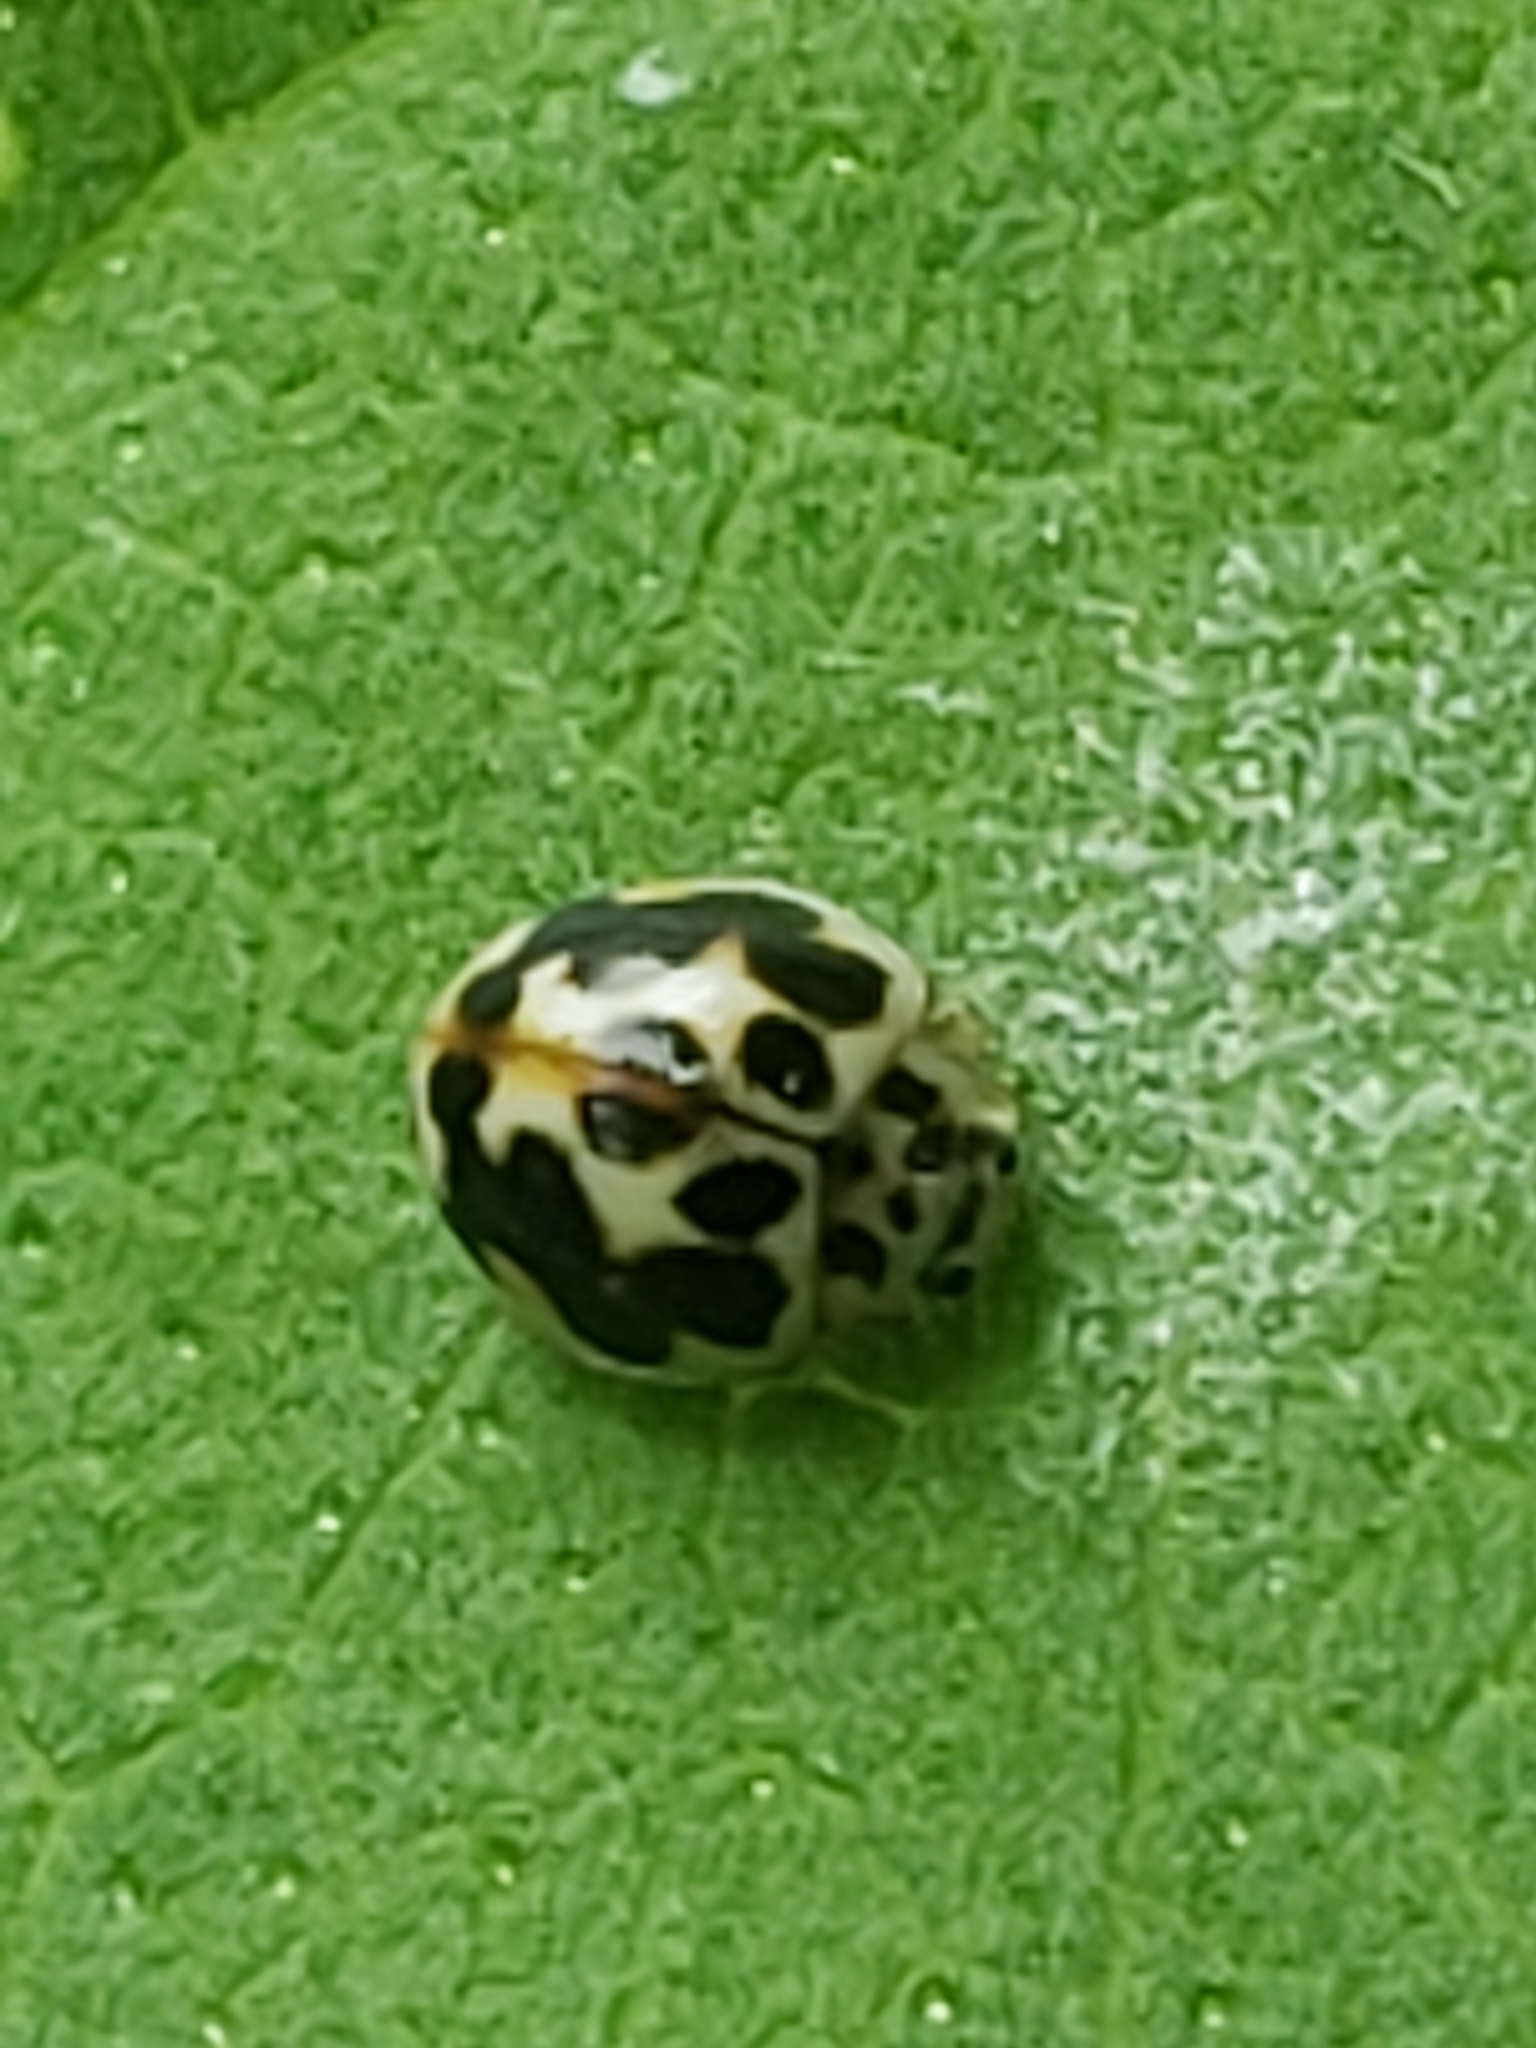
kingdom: Animalia
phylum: Arthropoda
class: Insecta
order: Coleoptera
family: Coccinellidae
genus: Psyllobora
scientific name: Psyllobora vigintimaculata
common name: Ladybird beetle
